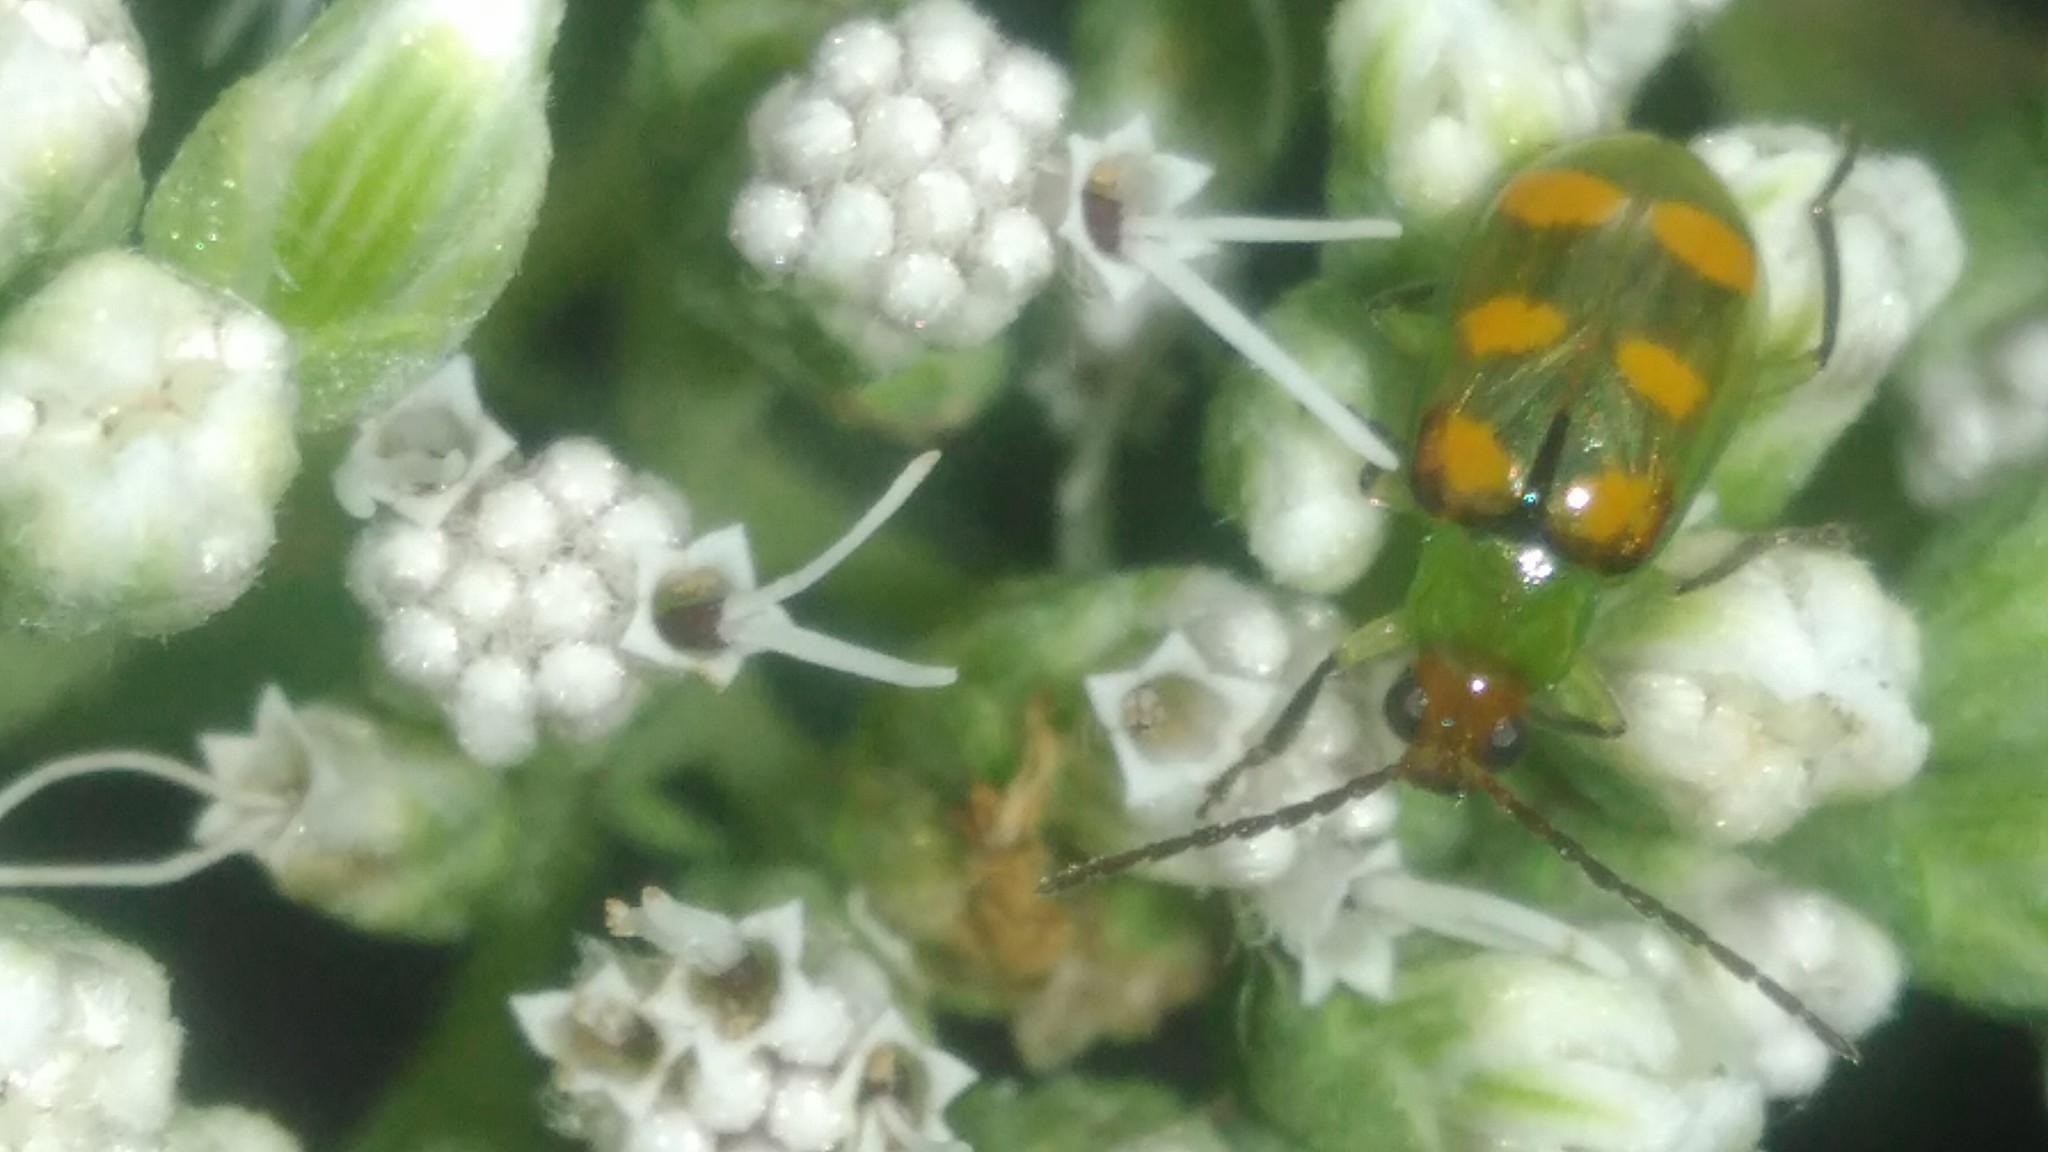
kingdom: Animalia
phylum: Arthropoda
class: Insecta
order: Coleoptera
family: Chrysomelidae
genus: Diabrotica
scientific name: Diabrotica speciosa
